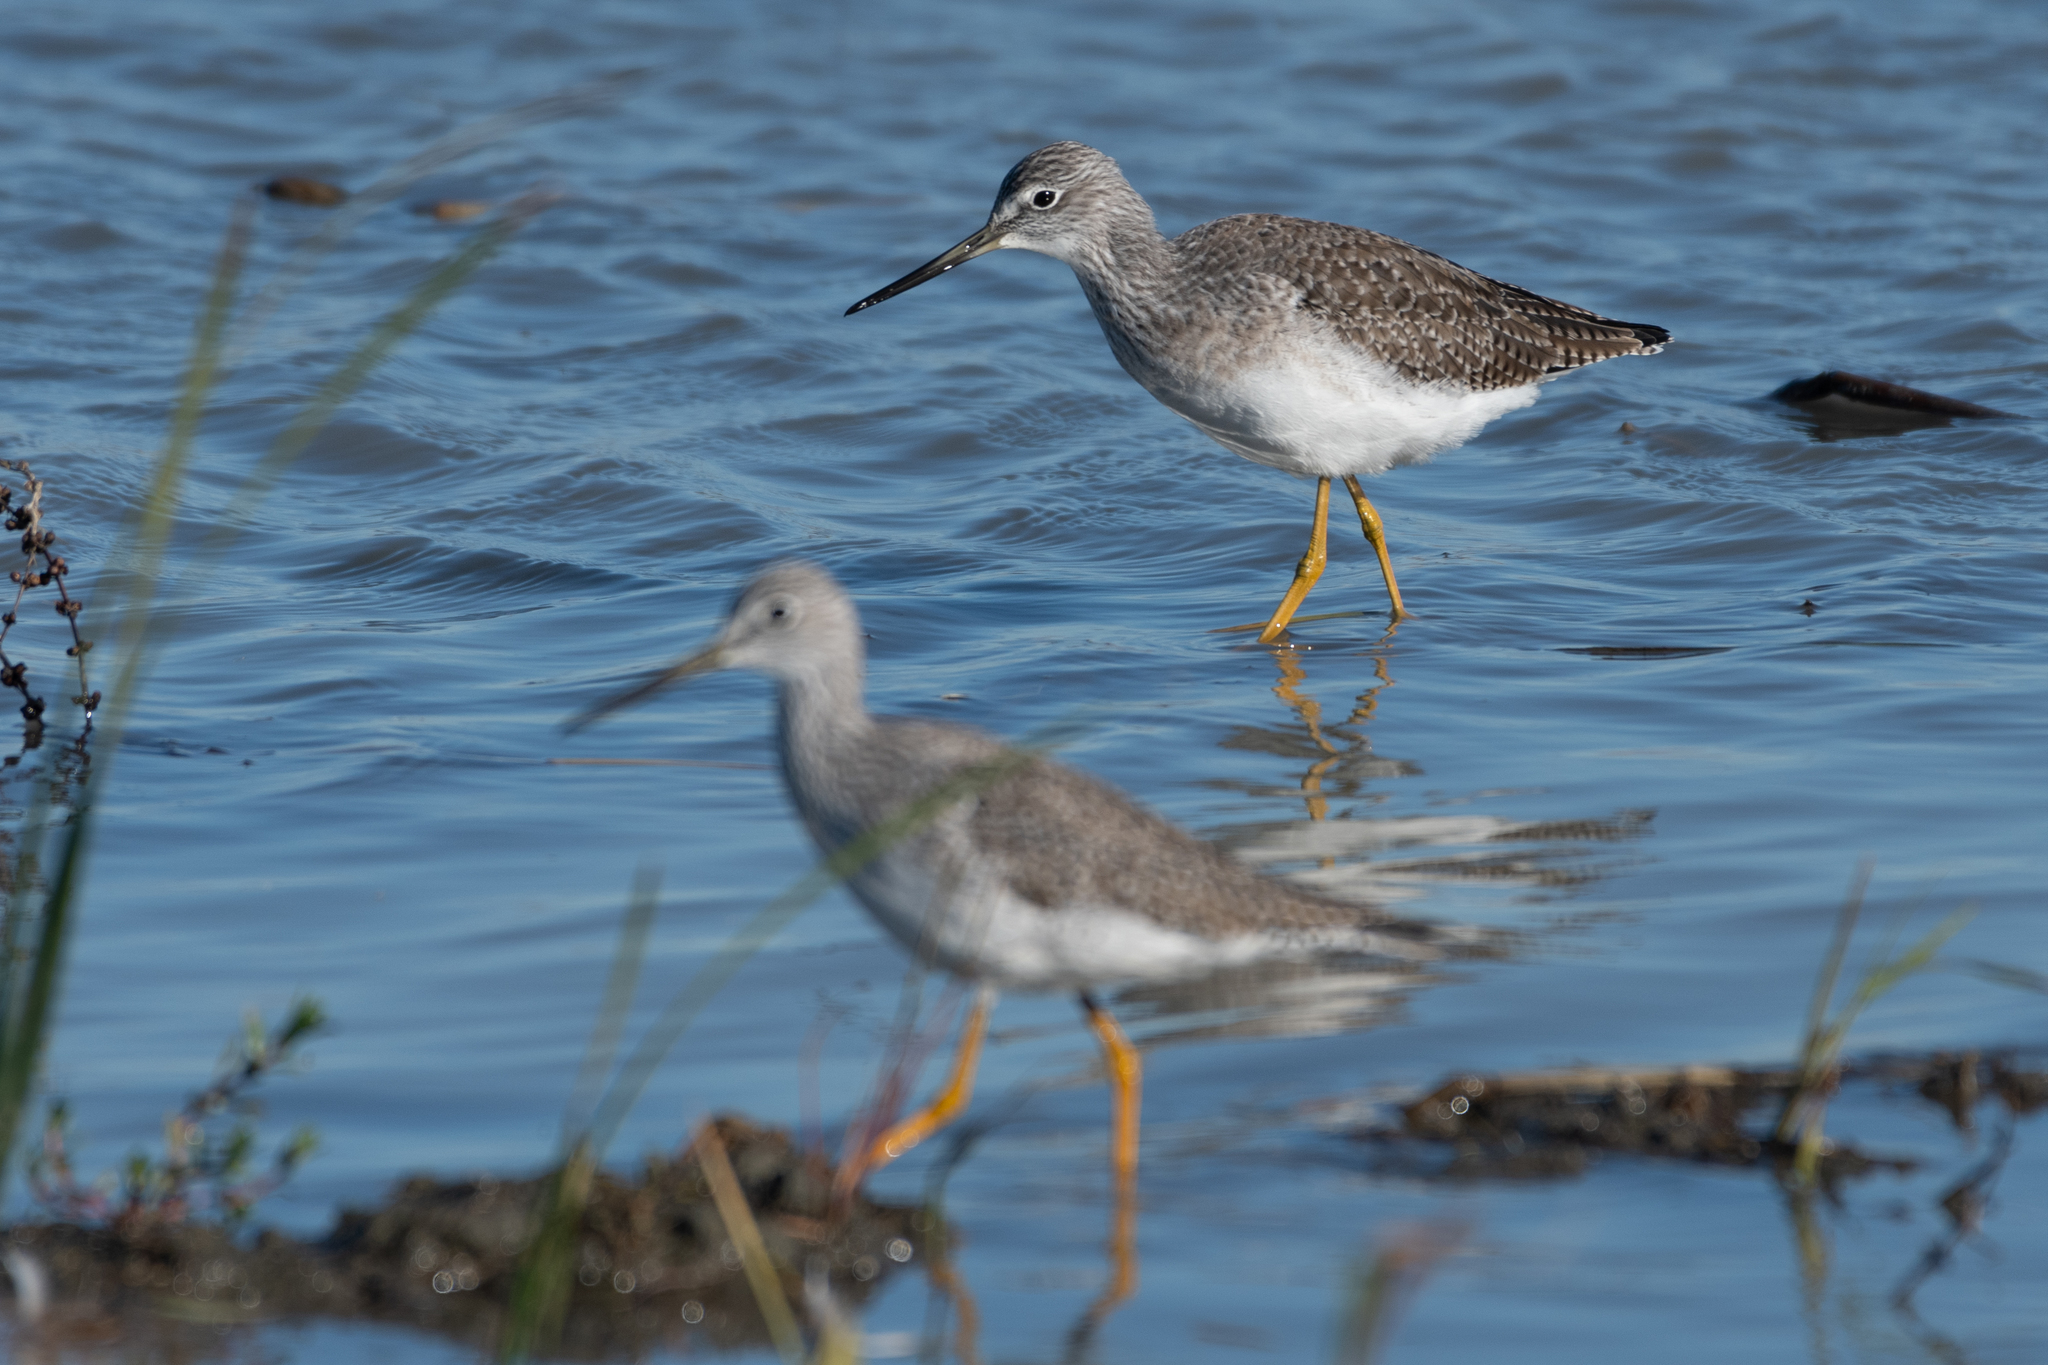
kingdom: Animalia
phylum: Chordata
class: Aves
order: Charadriiformes
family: Scolopacidae
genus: Tringa
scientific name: Tringa melanoleuca
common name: Greater yellowlegs
